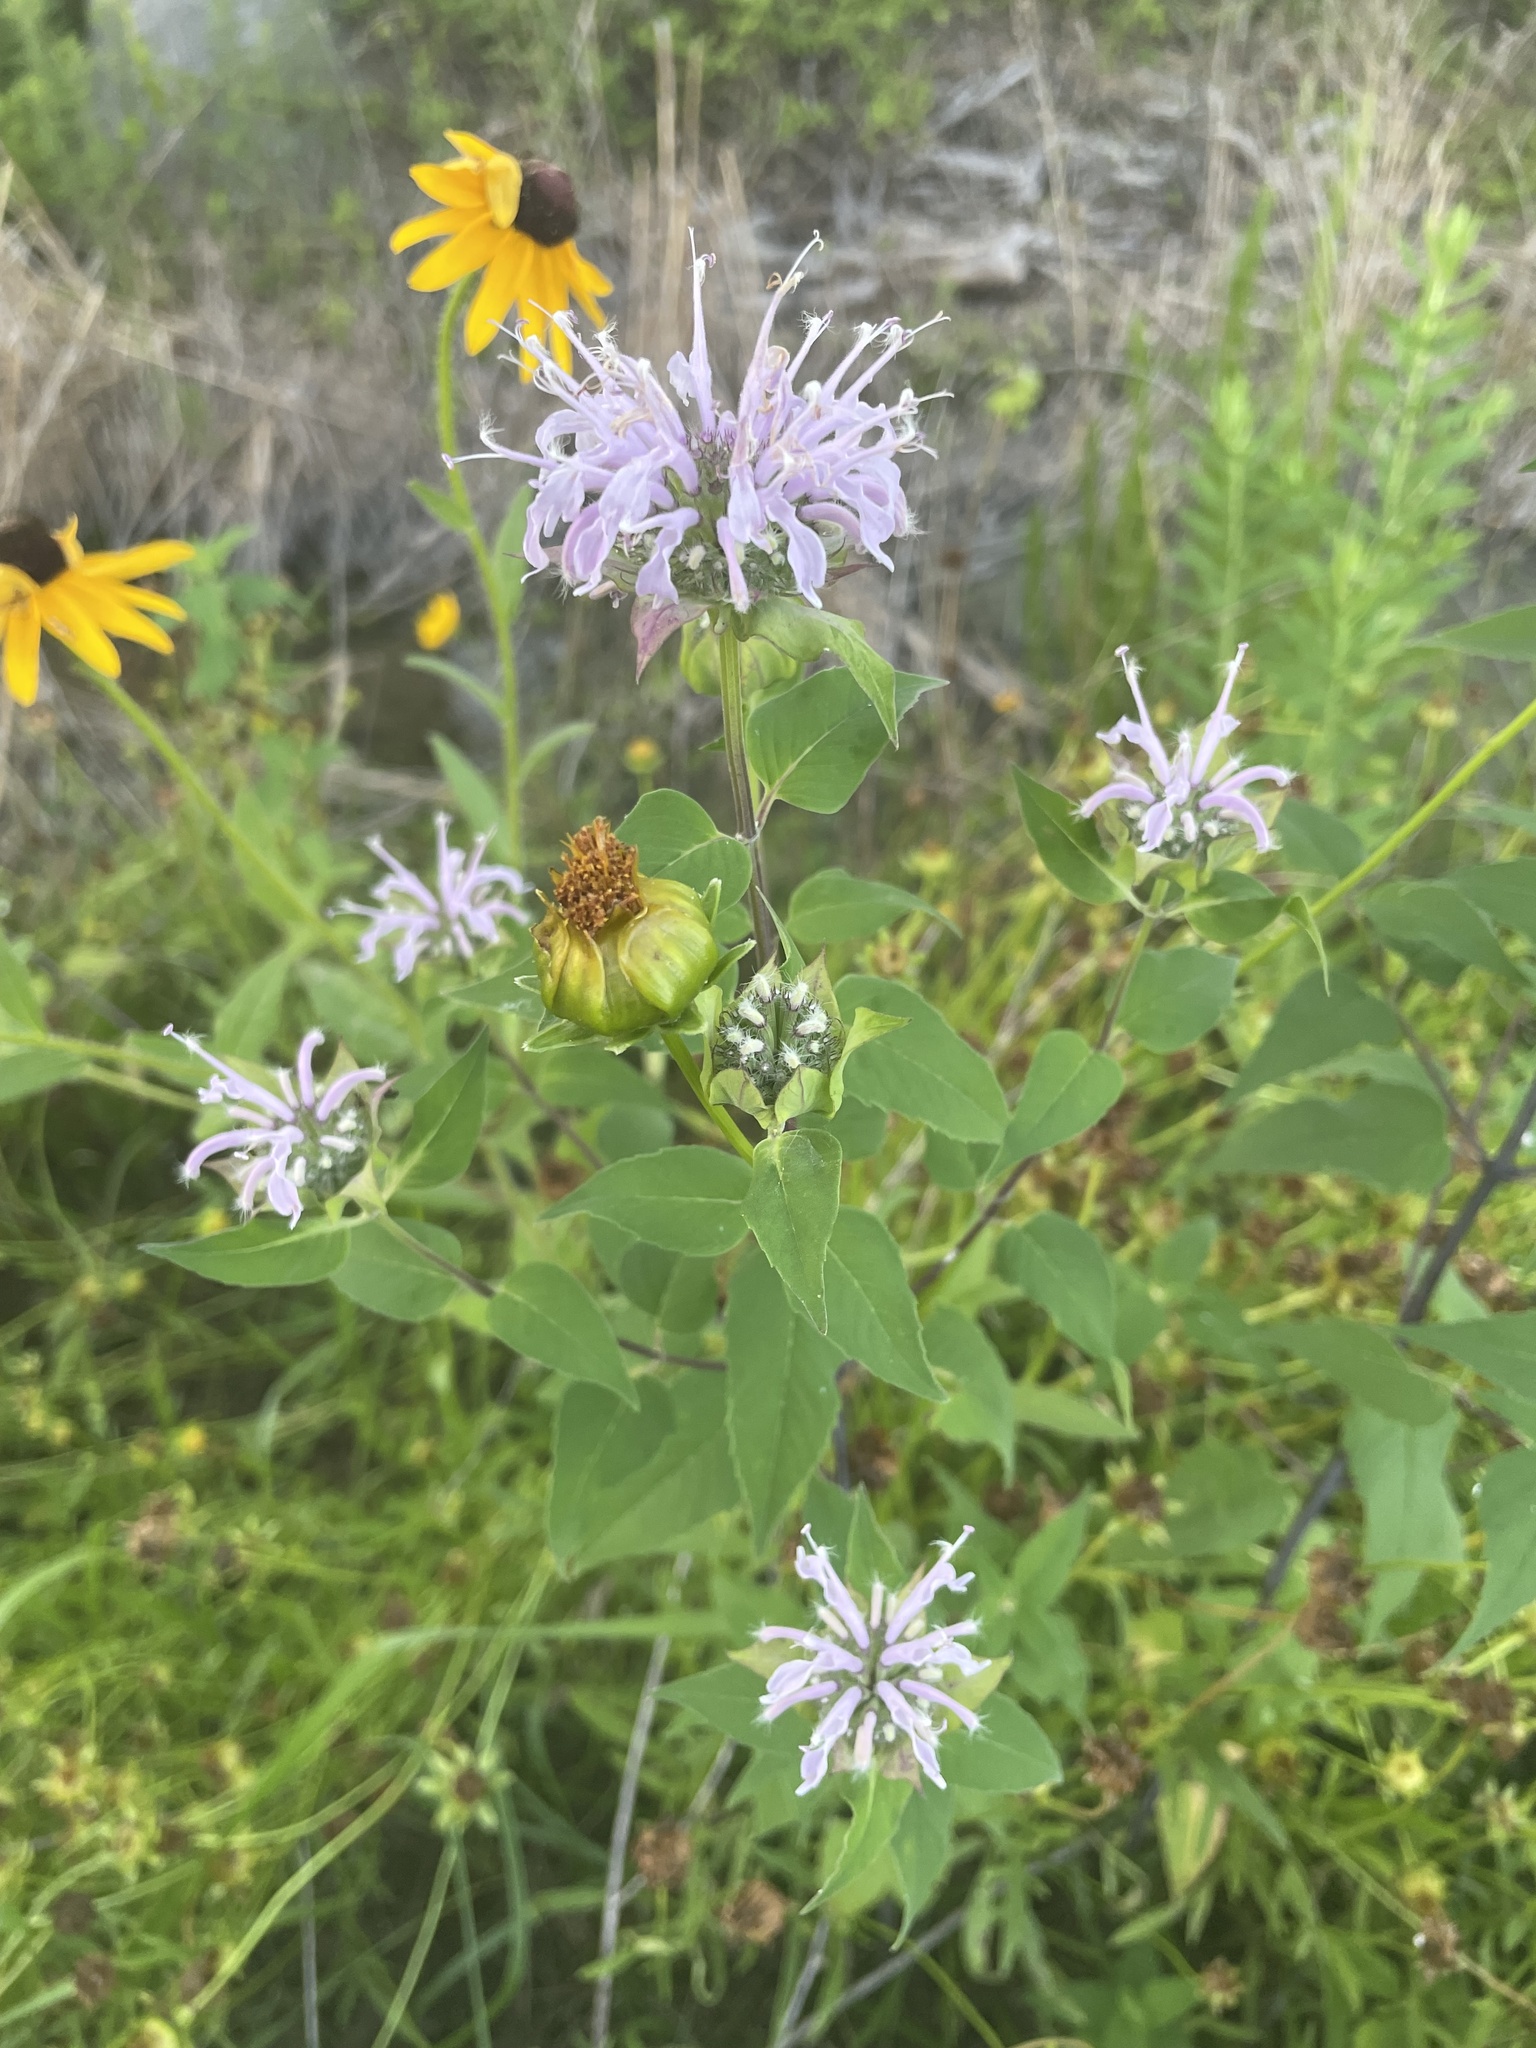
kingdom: Plantae
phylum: Tracheophyta
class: Magnoliopsida
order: Lamiales
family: Lamiaceae
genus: Monarda
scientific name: Monarda fistulosa
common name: Purple beebalm
